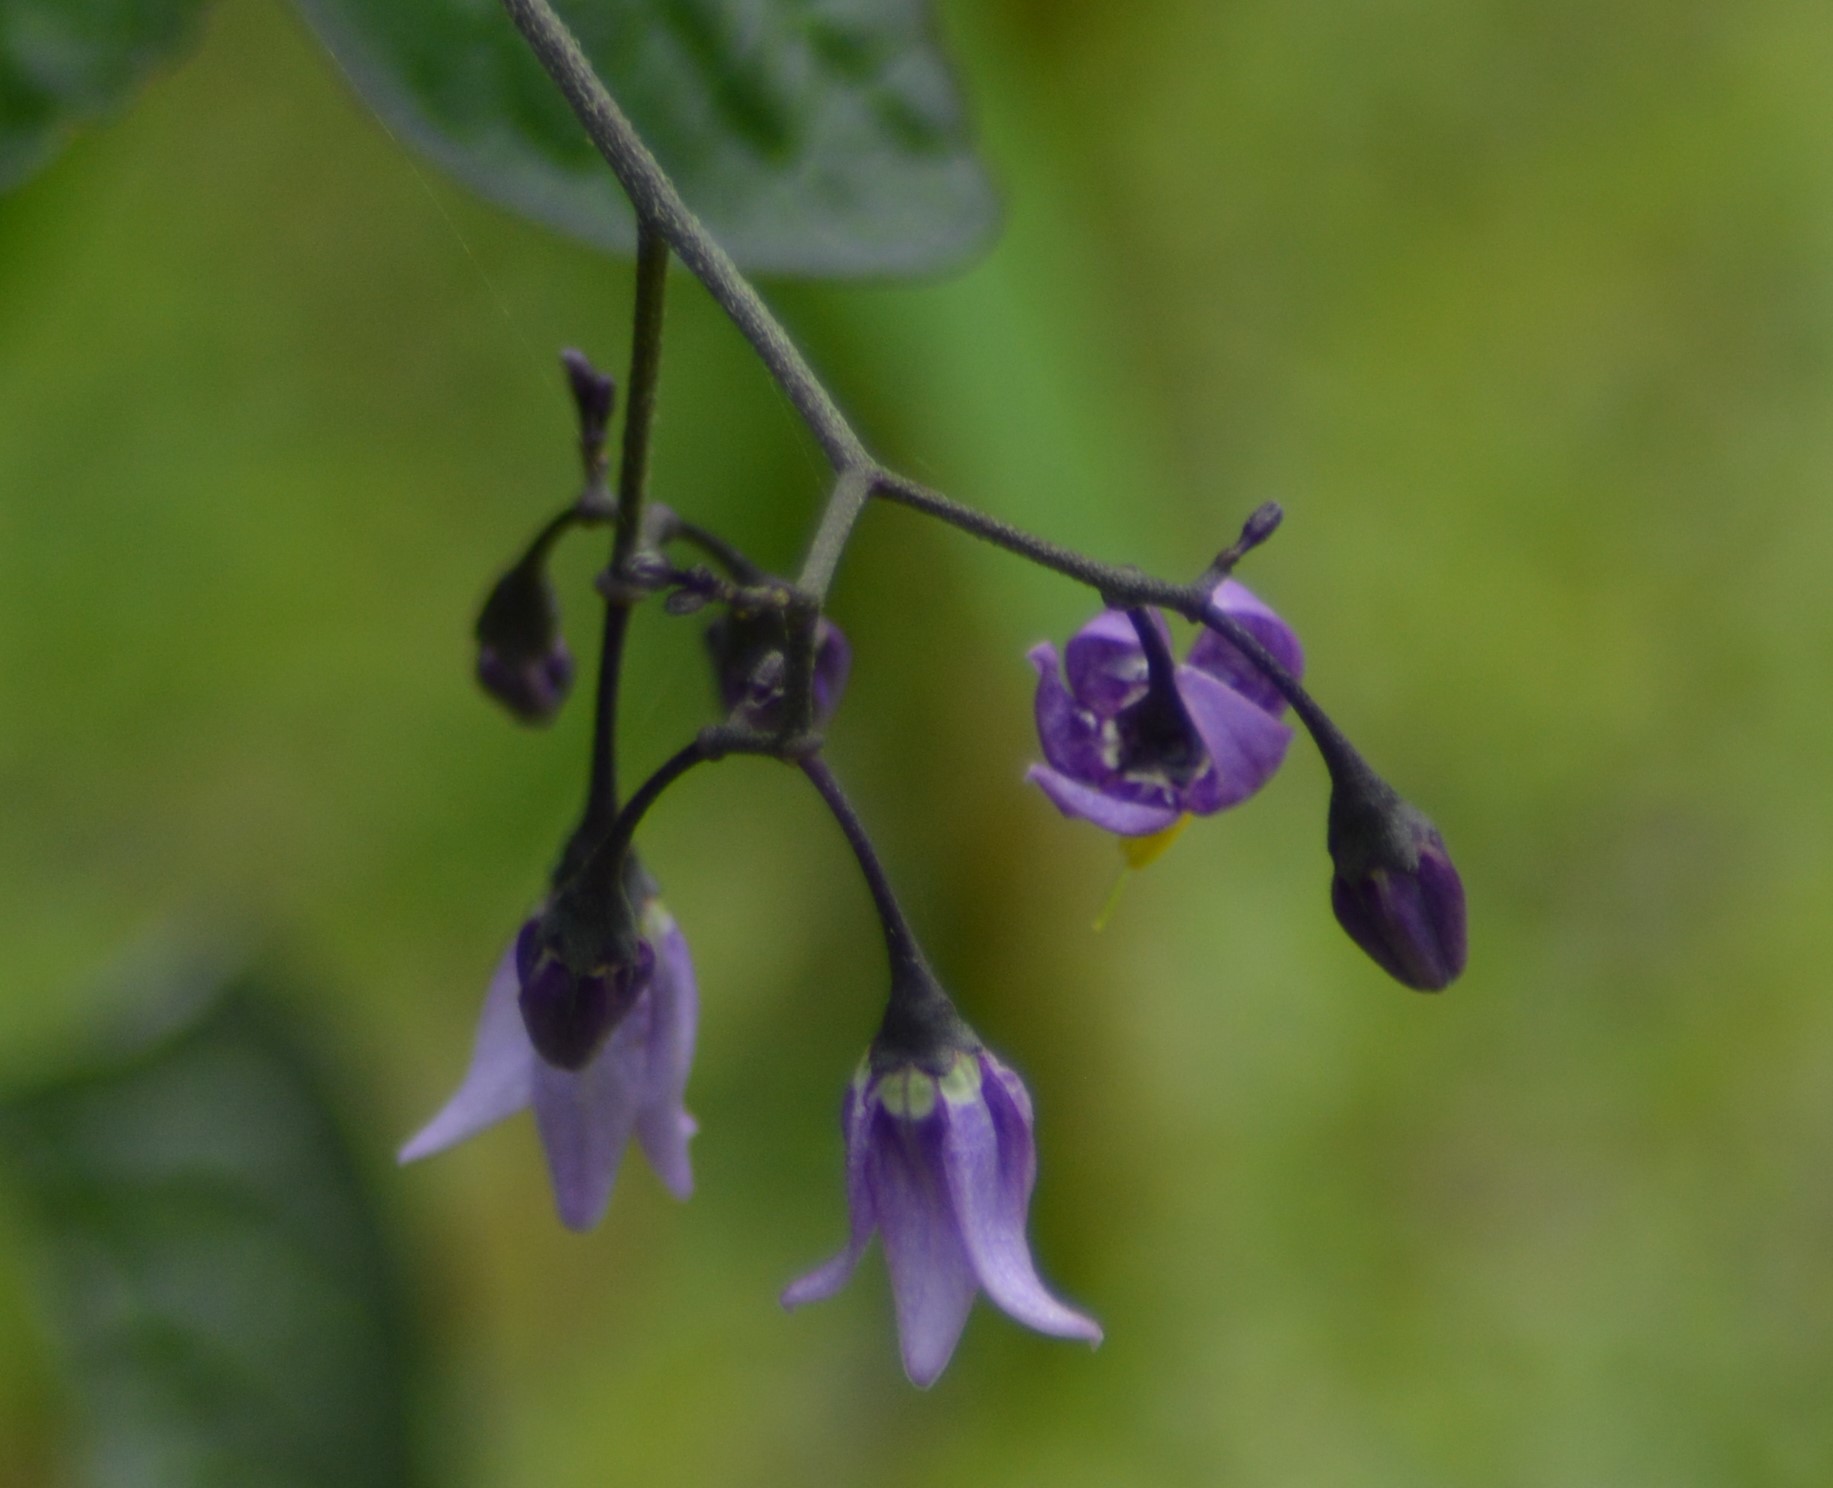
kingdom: Plantae
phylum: Tracheophyta
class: Magnoliopsida
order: Solanales
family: Solanaceae
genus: Solanum
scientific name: Solanum dulcamara
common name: Climbing nightshade
